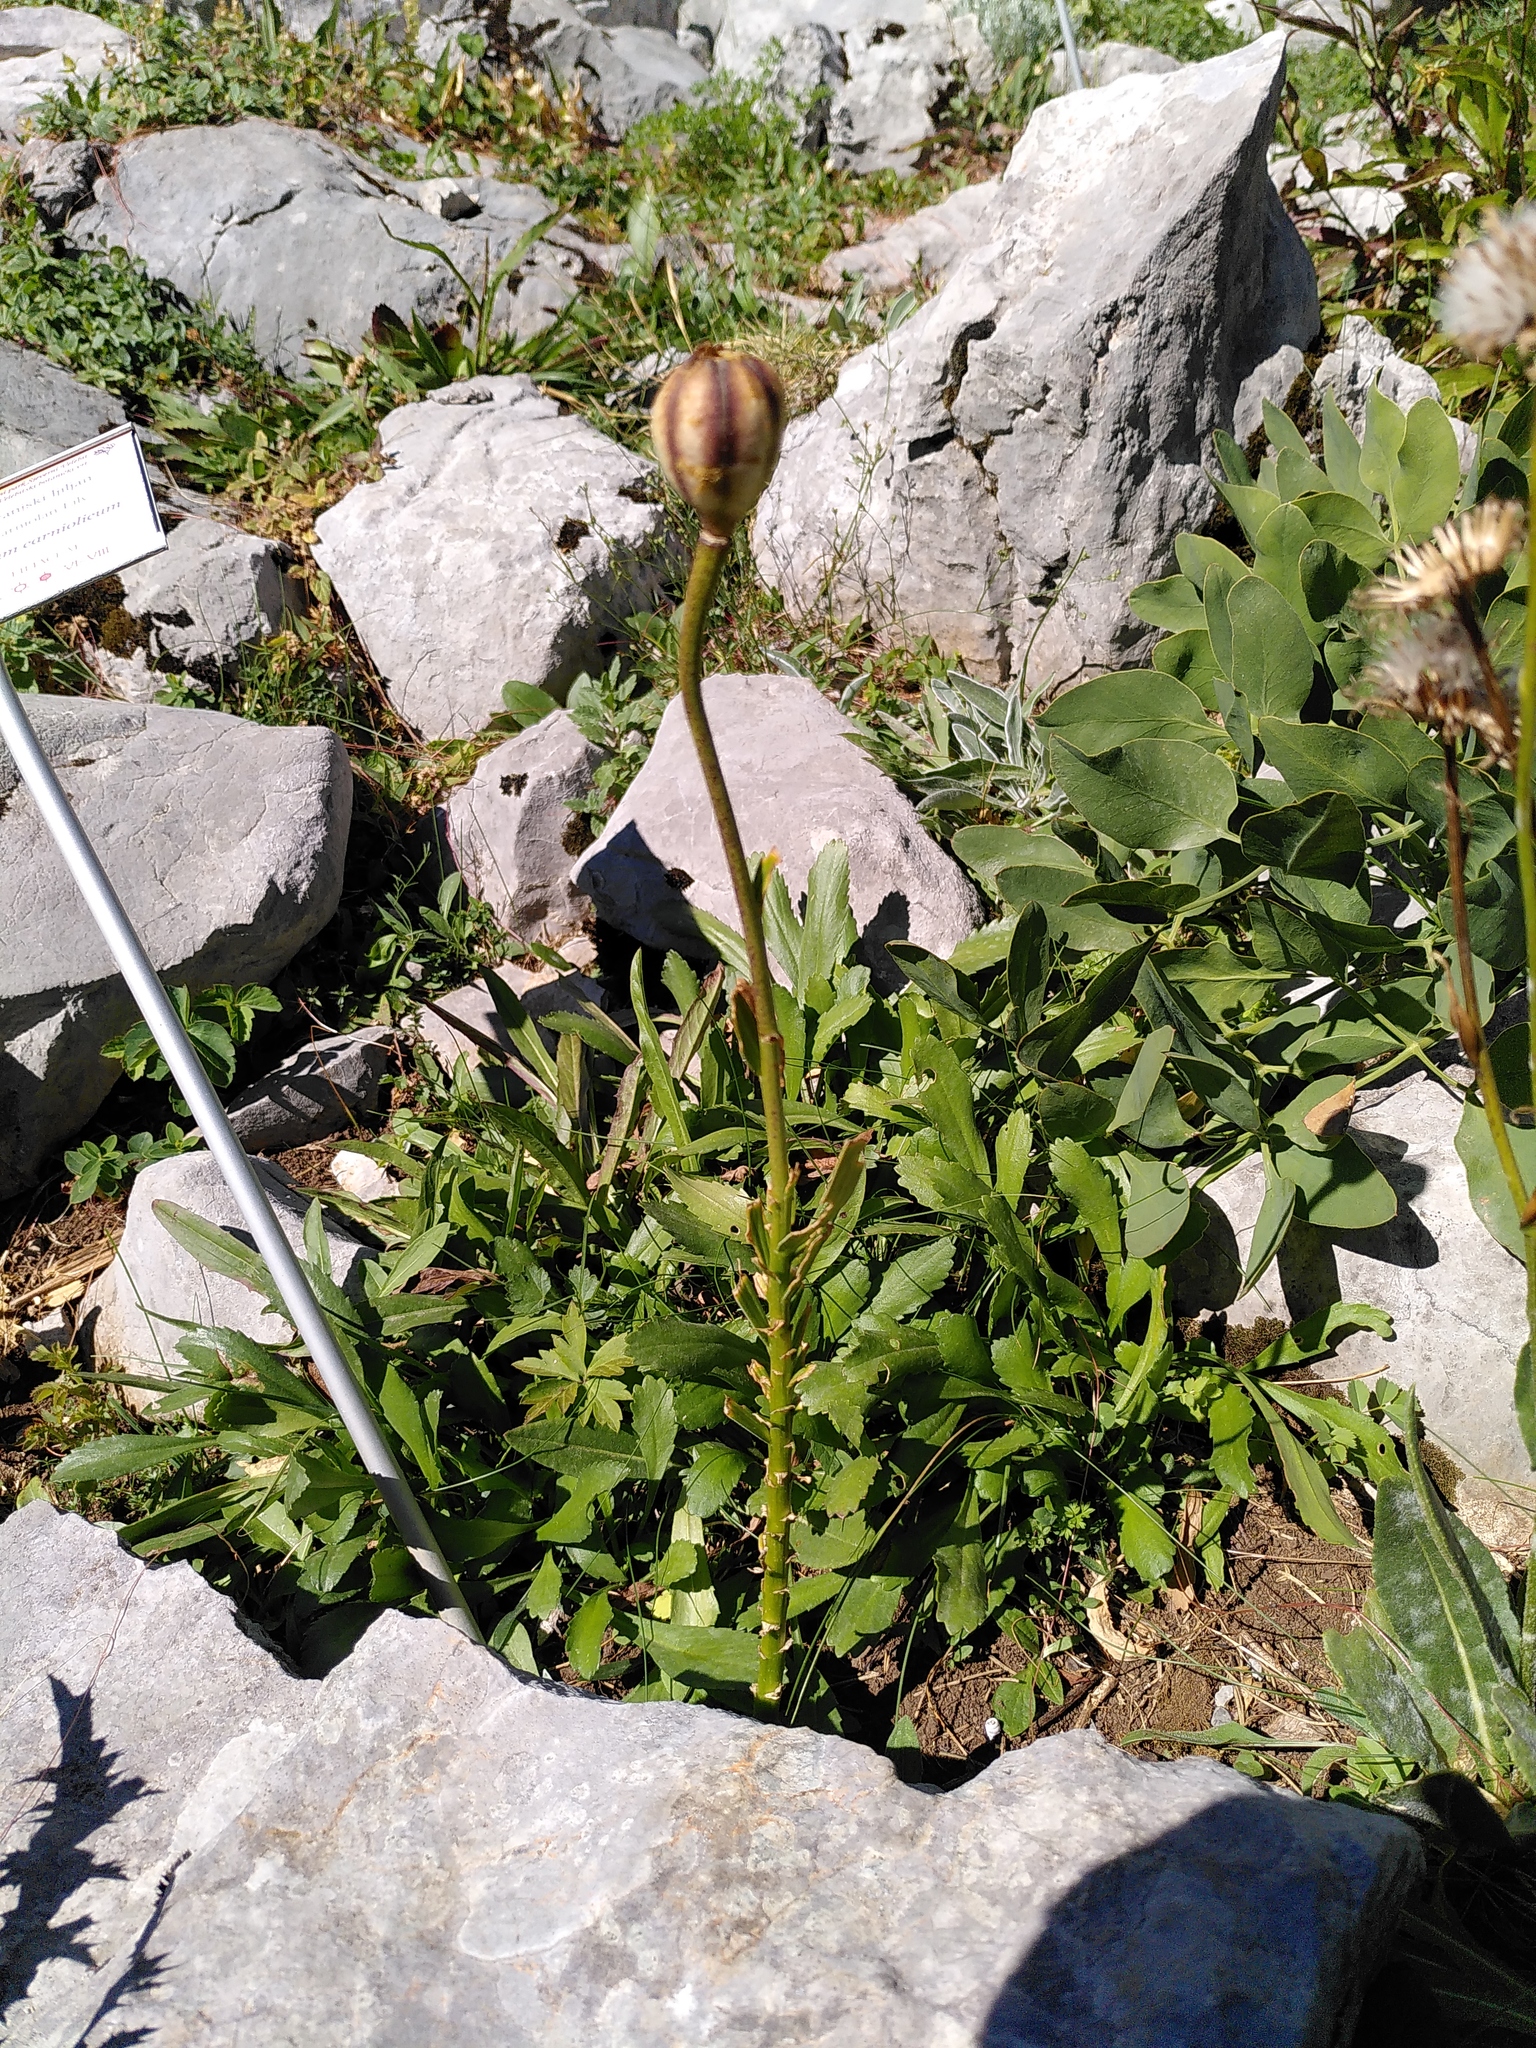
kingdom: Plantae
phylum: Tracheophyta
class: Liliopsida
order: Liliales
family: Liliaceae
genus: Lilium
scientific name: Lilium carniolicum
